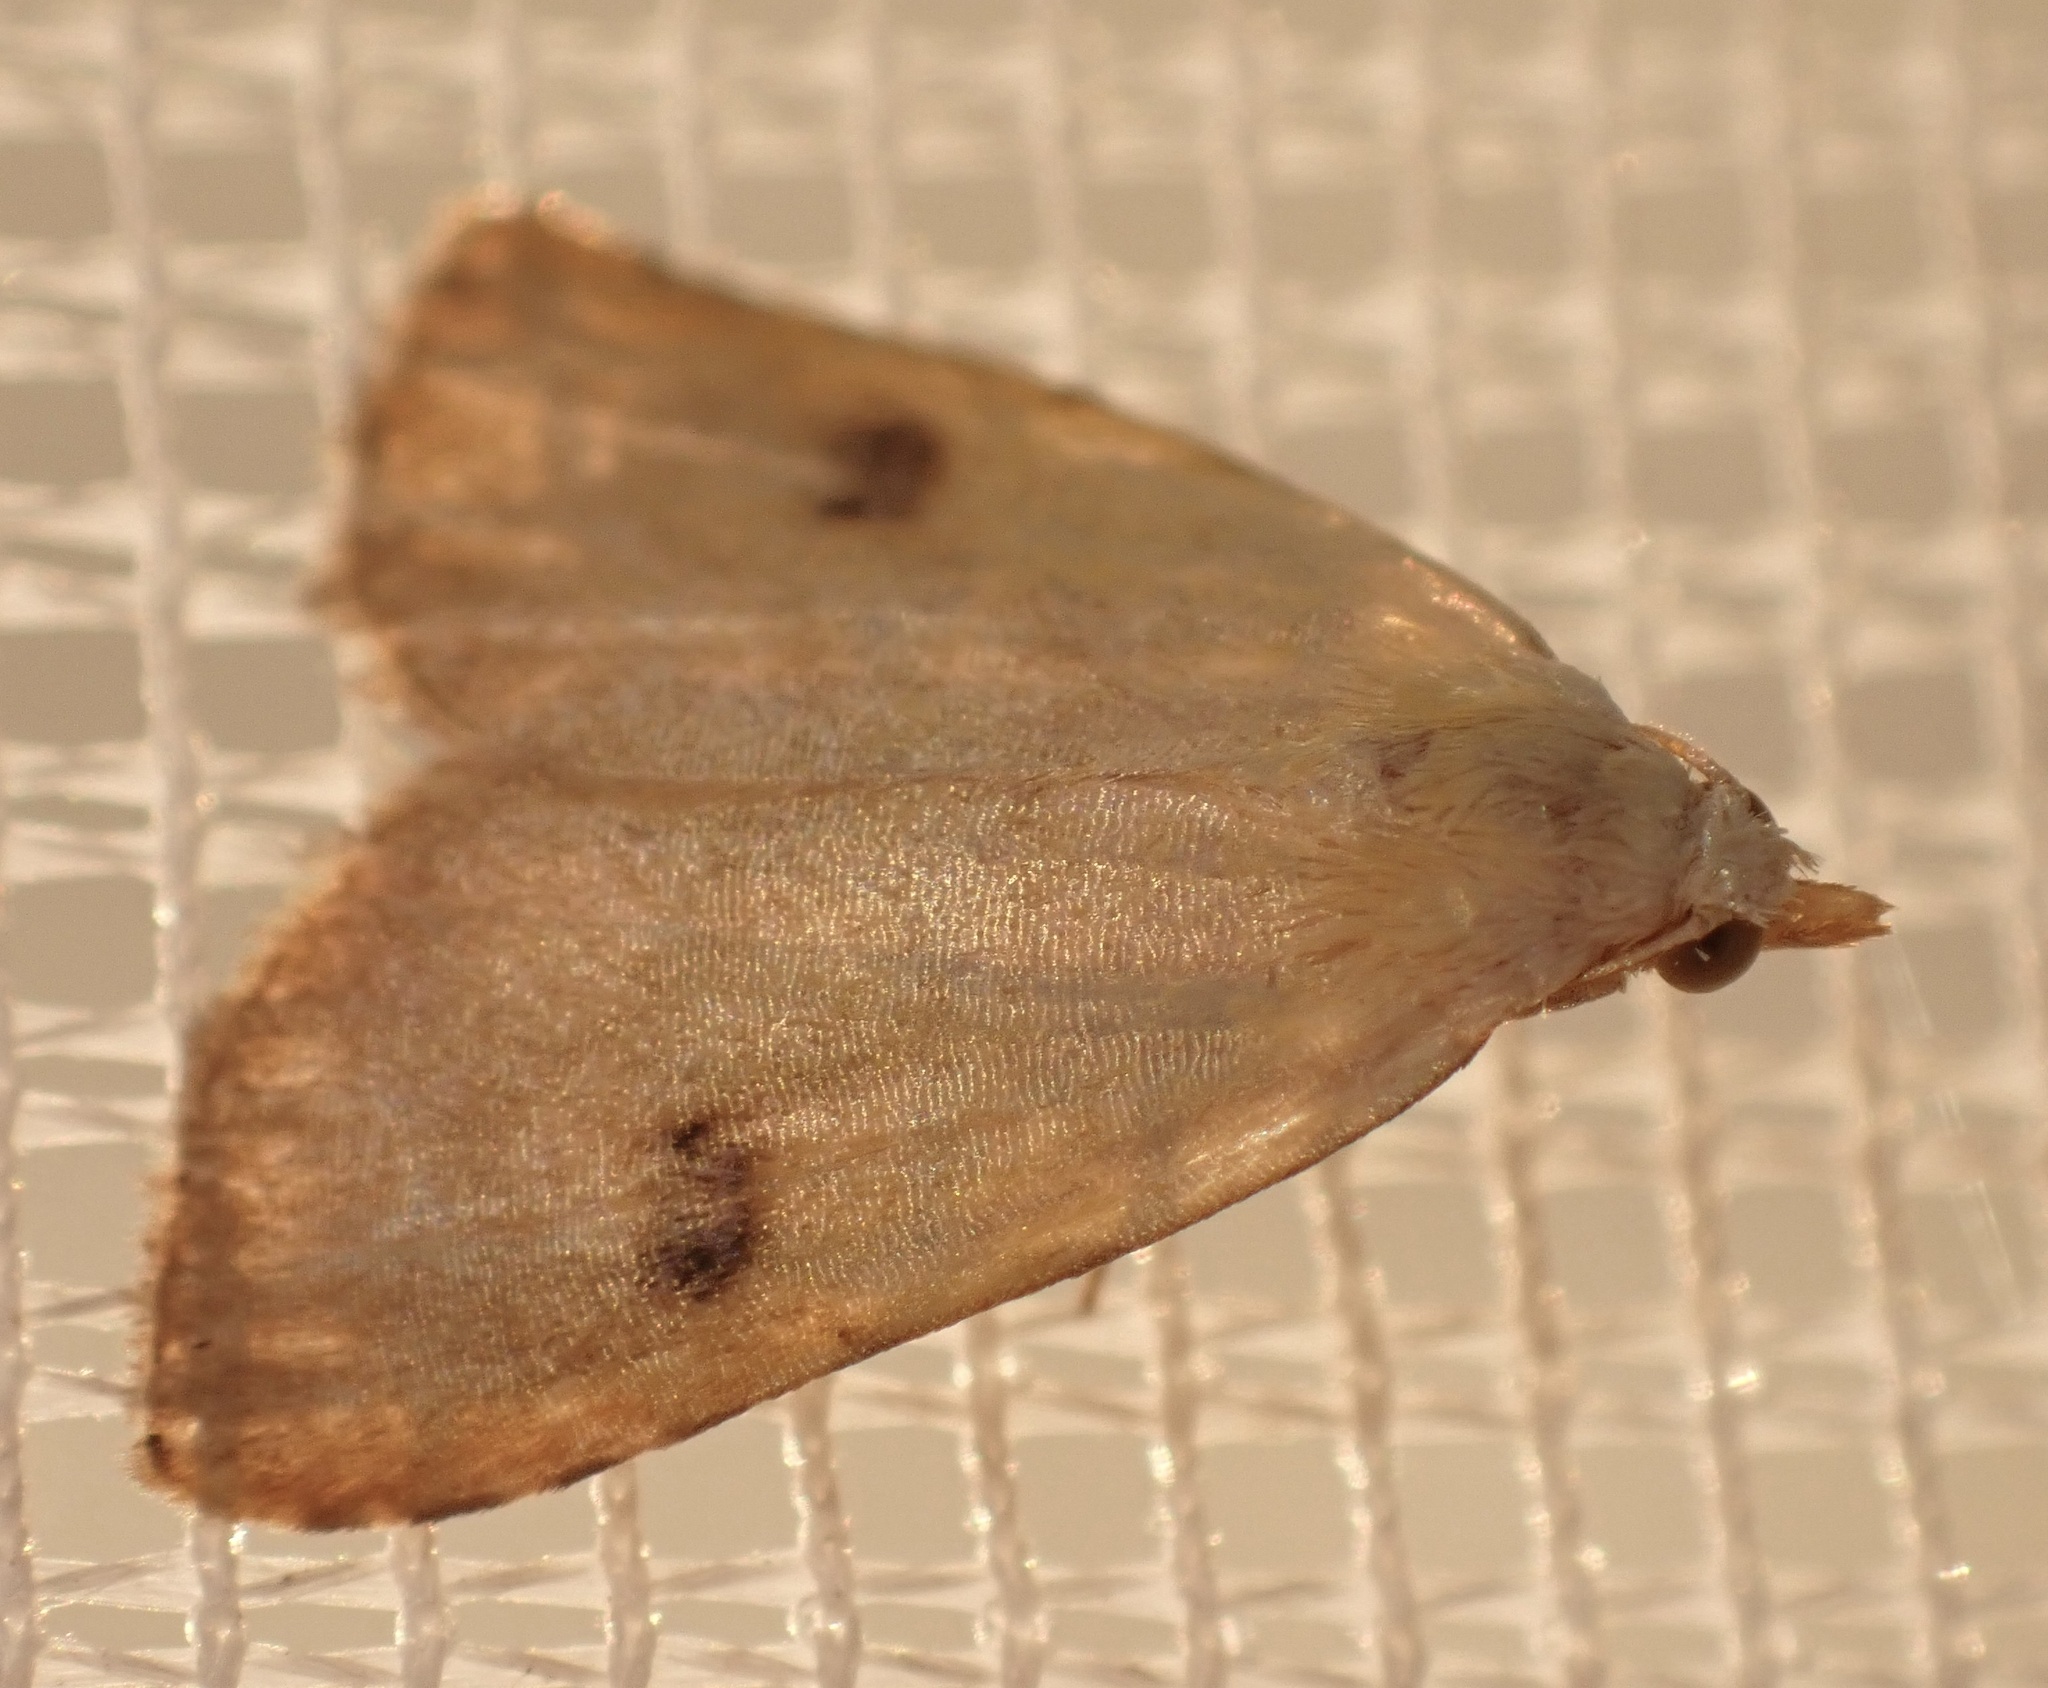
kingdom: Animalia
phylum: Arthropoda
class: Insecta
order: Lepidoptera
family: Erebidae
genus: Rivula
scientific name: Rivula sericealis
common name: Straw dot
